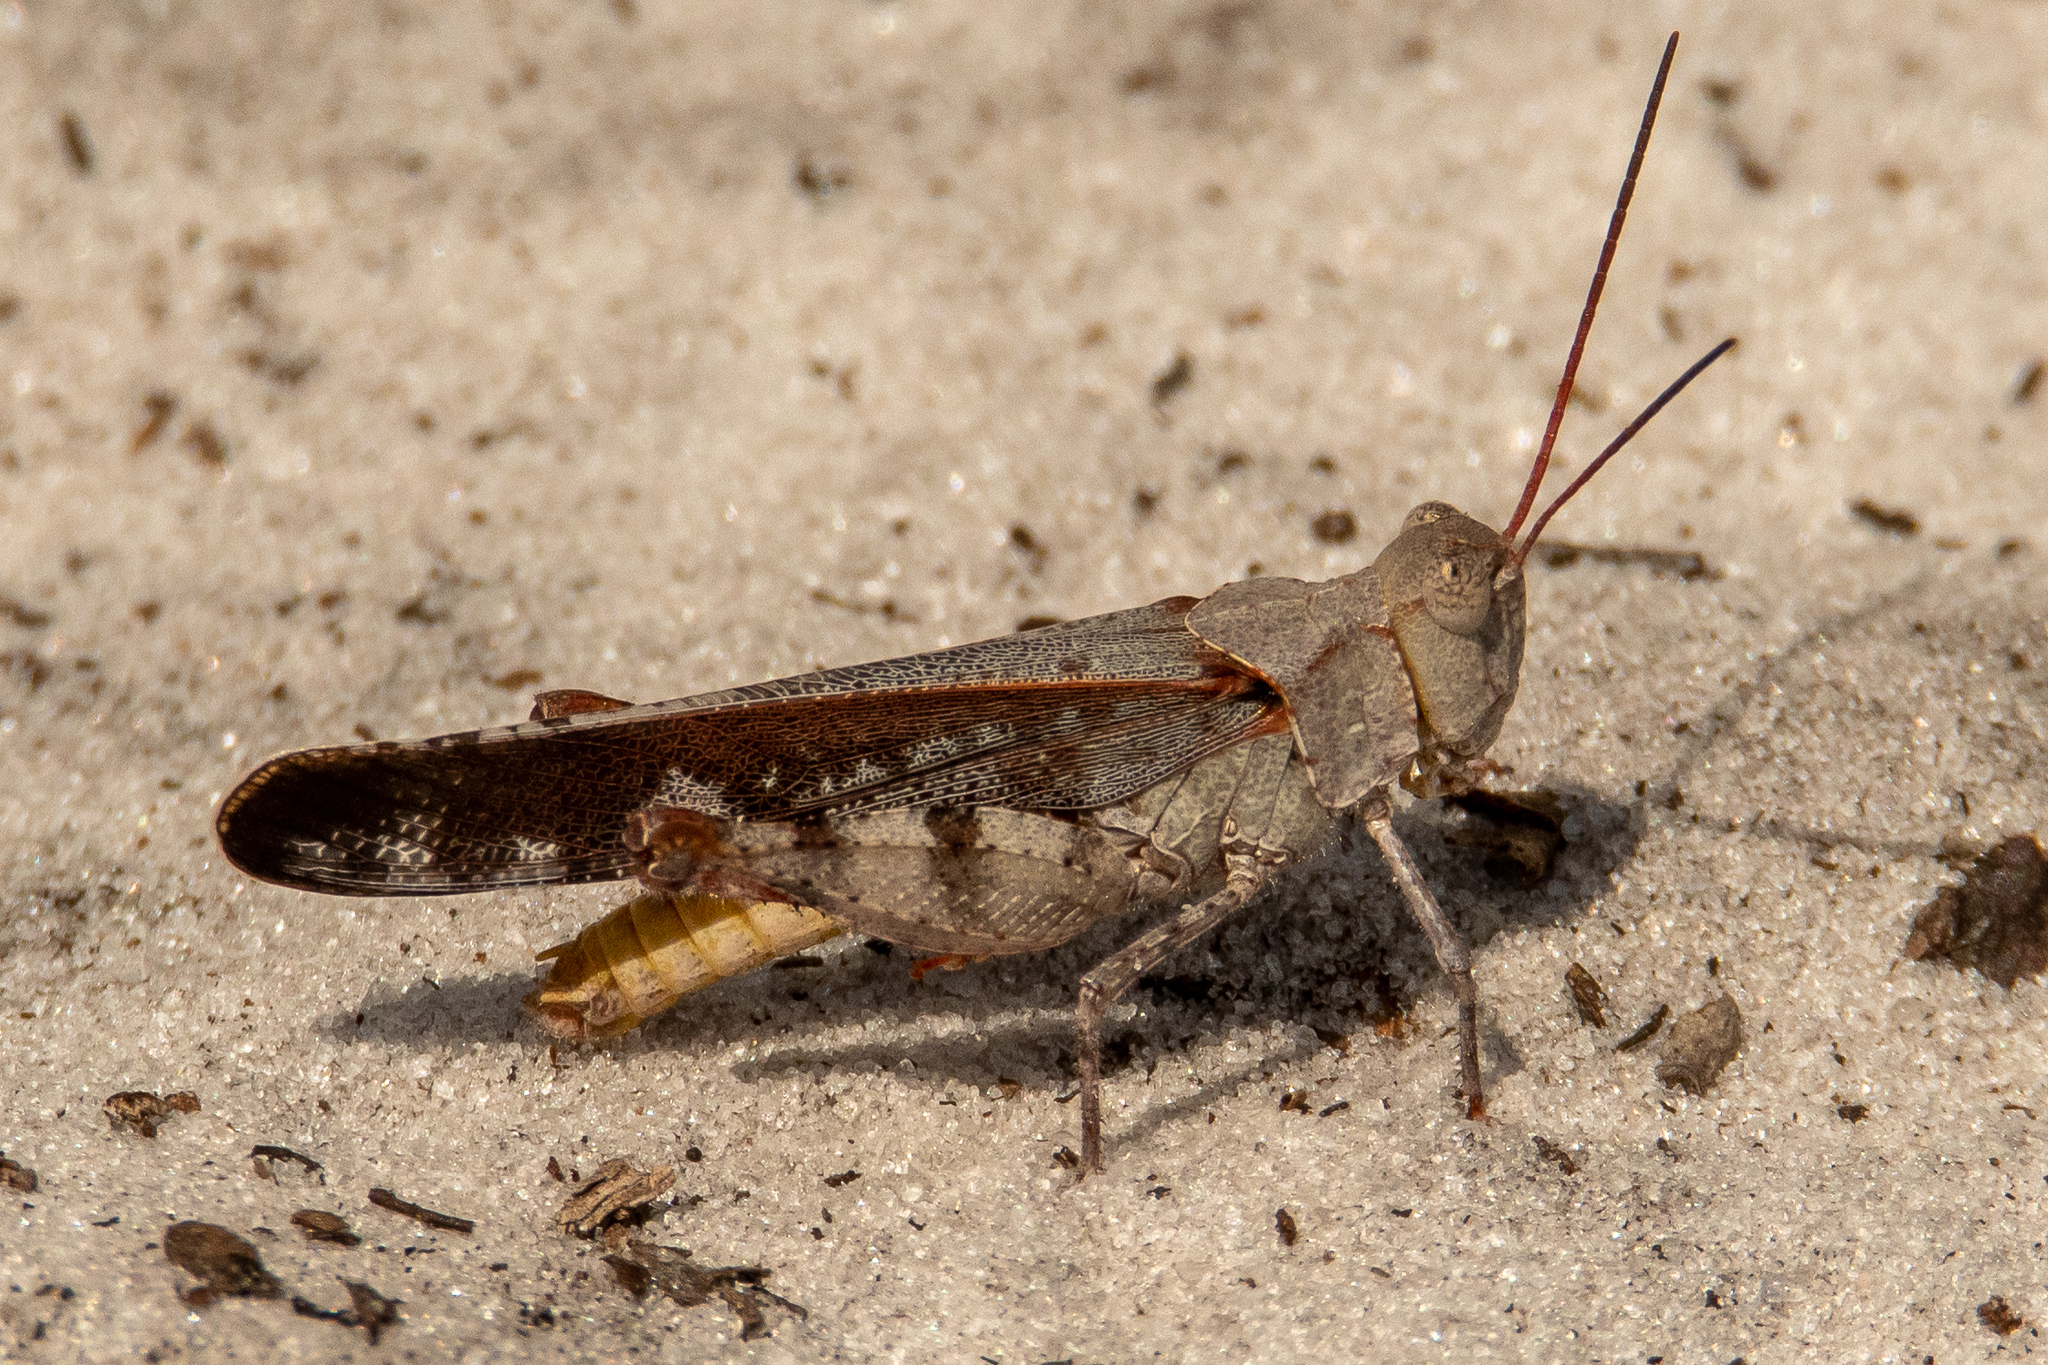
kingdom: Animalia
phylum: Arthropoda
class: Insecta
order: Orthoptera
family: Acrididae
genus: Spharagemon
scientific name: Spharagemon marmoratum
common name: Marbled grasshopper
